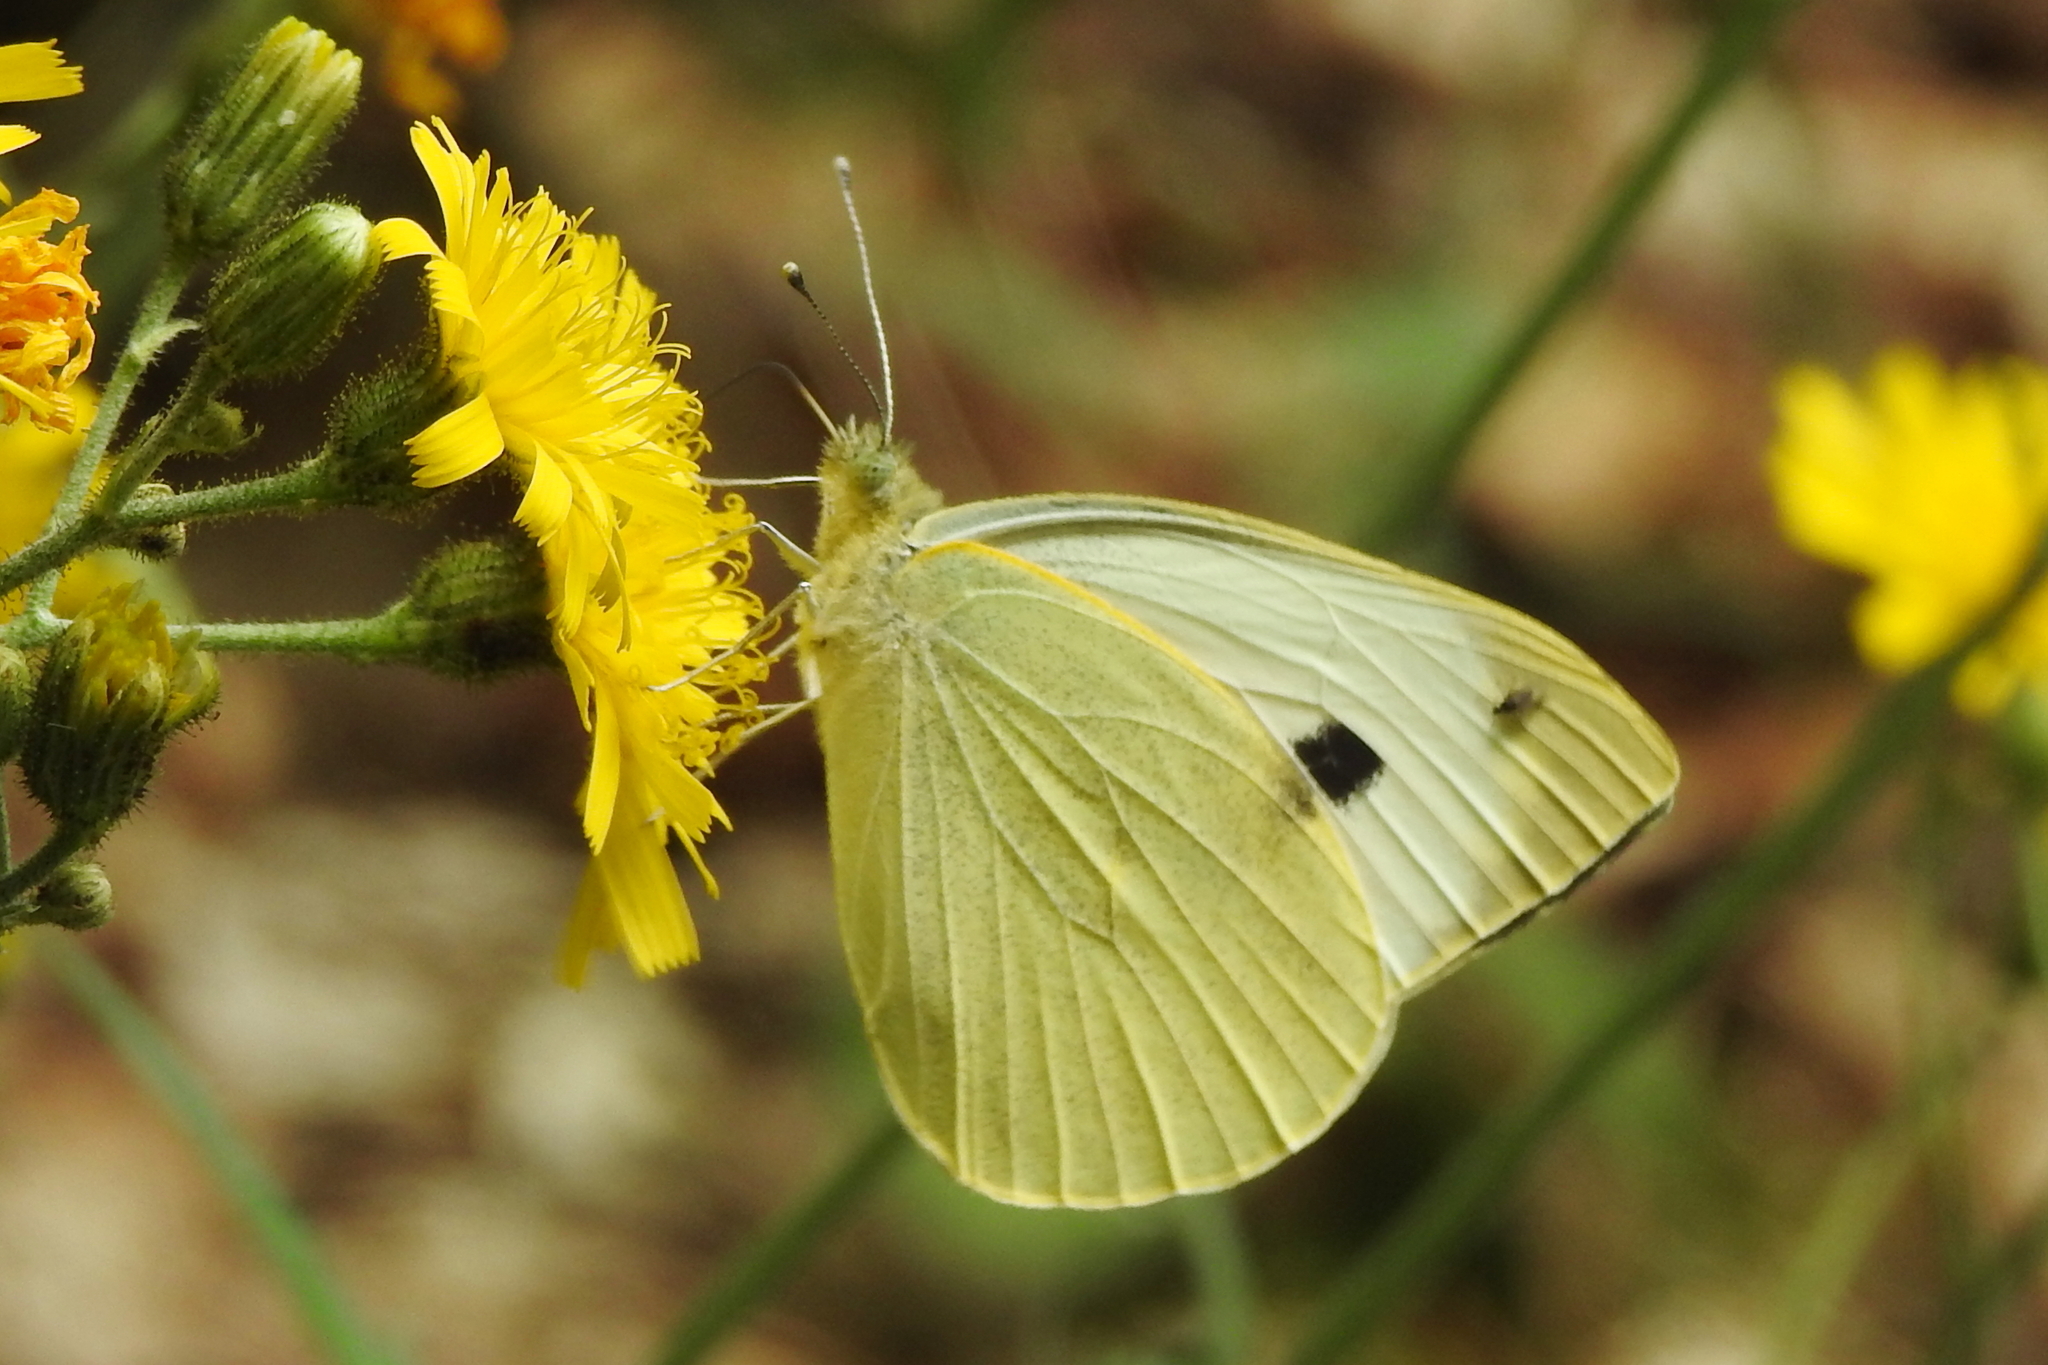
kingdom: Animalia
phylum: Arthropoda
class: Insecta
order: Lepidoptera
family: Pieridae
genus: Pieris
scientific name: Pieris brassicae
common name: Large white
